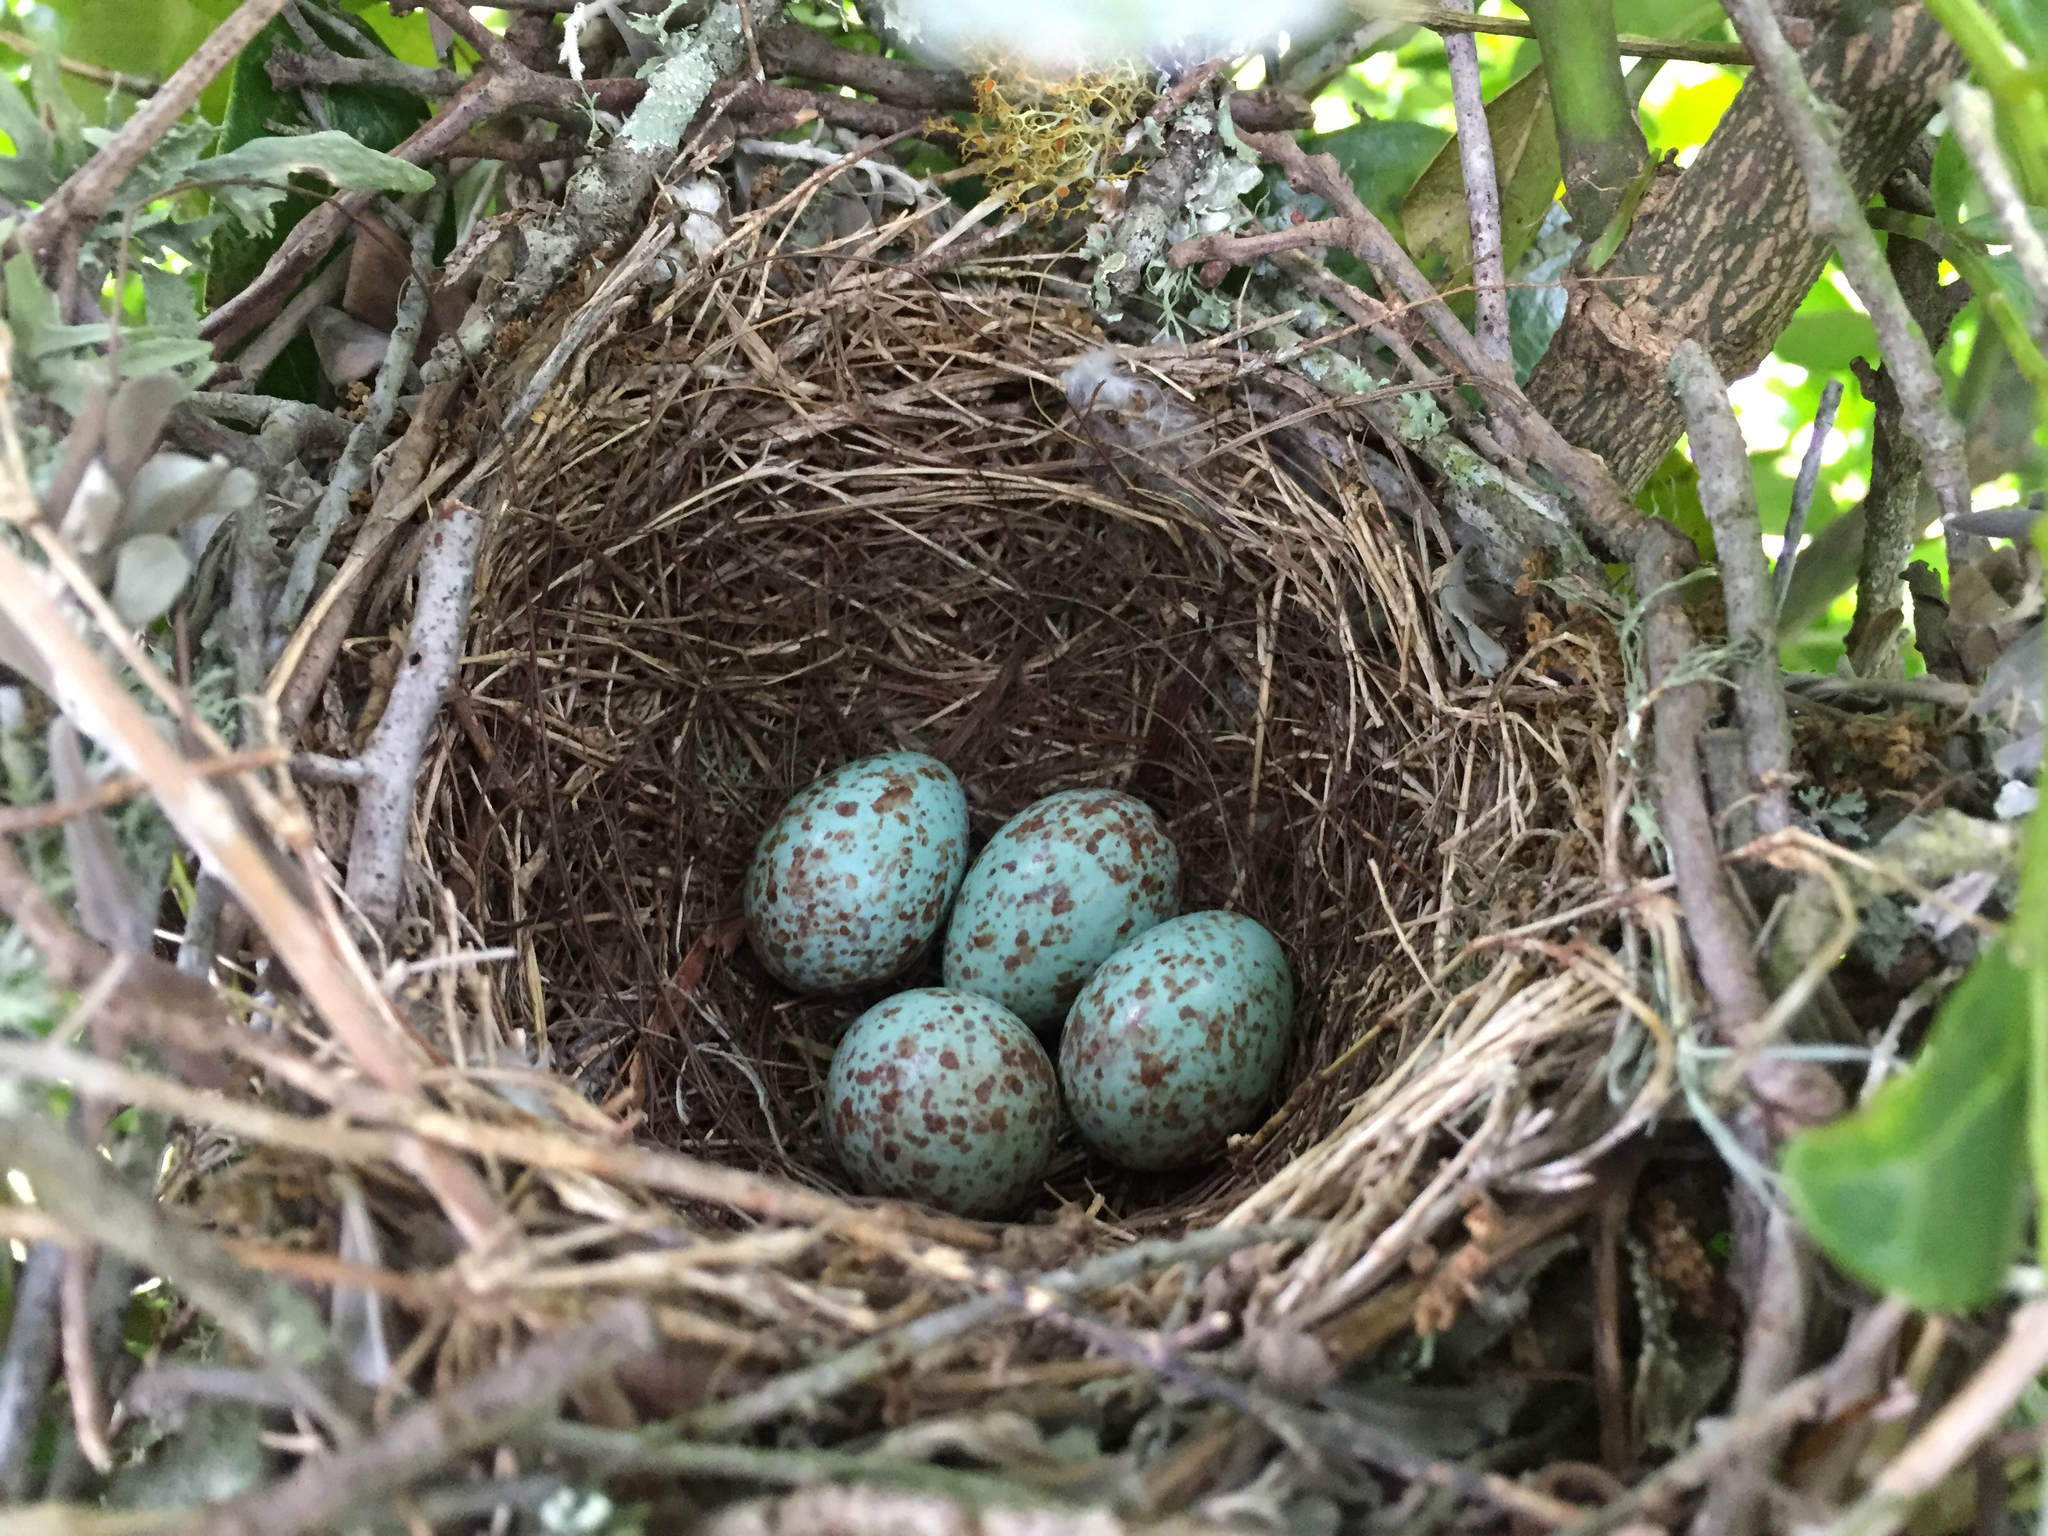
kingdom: Animalia
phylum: Chordata
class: Aves
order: Passeriformes
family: Mimidae
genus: Mimus
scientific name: Mimus polyglottos
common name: Northern mockingbird
